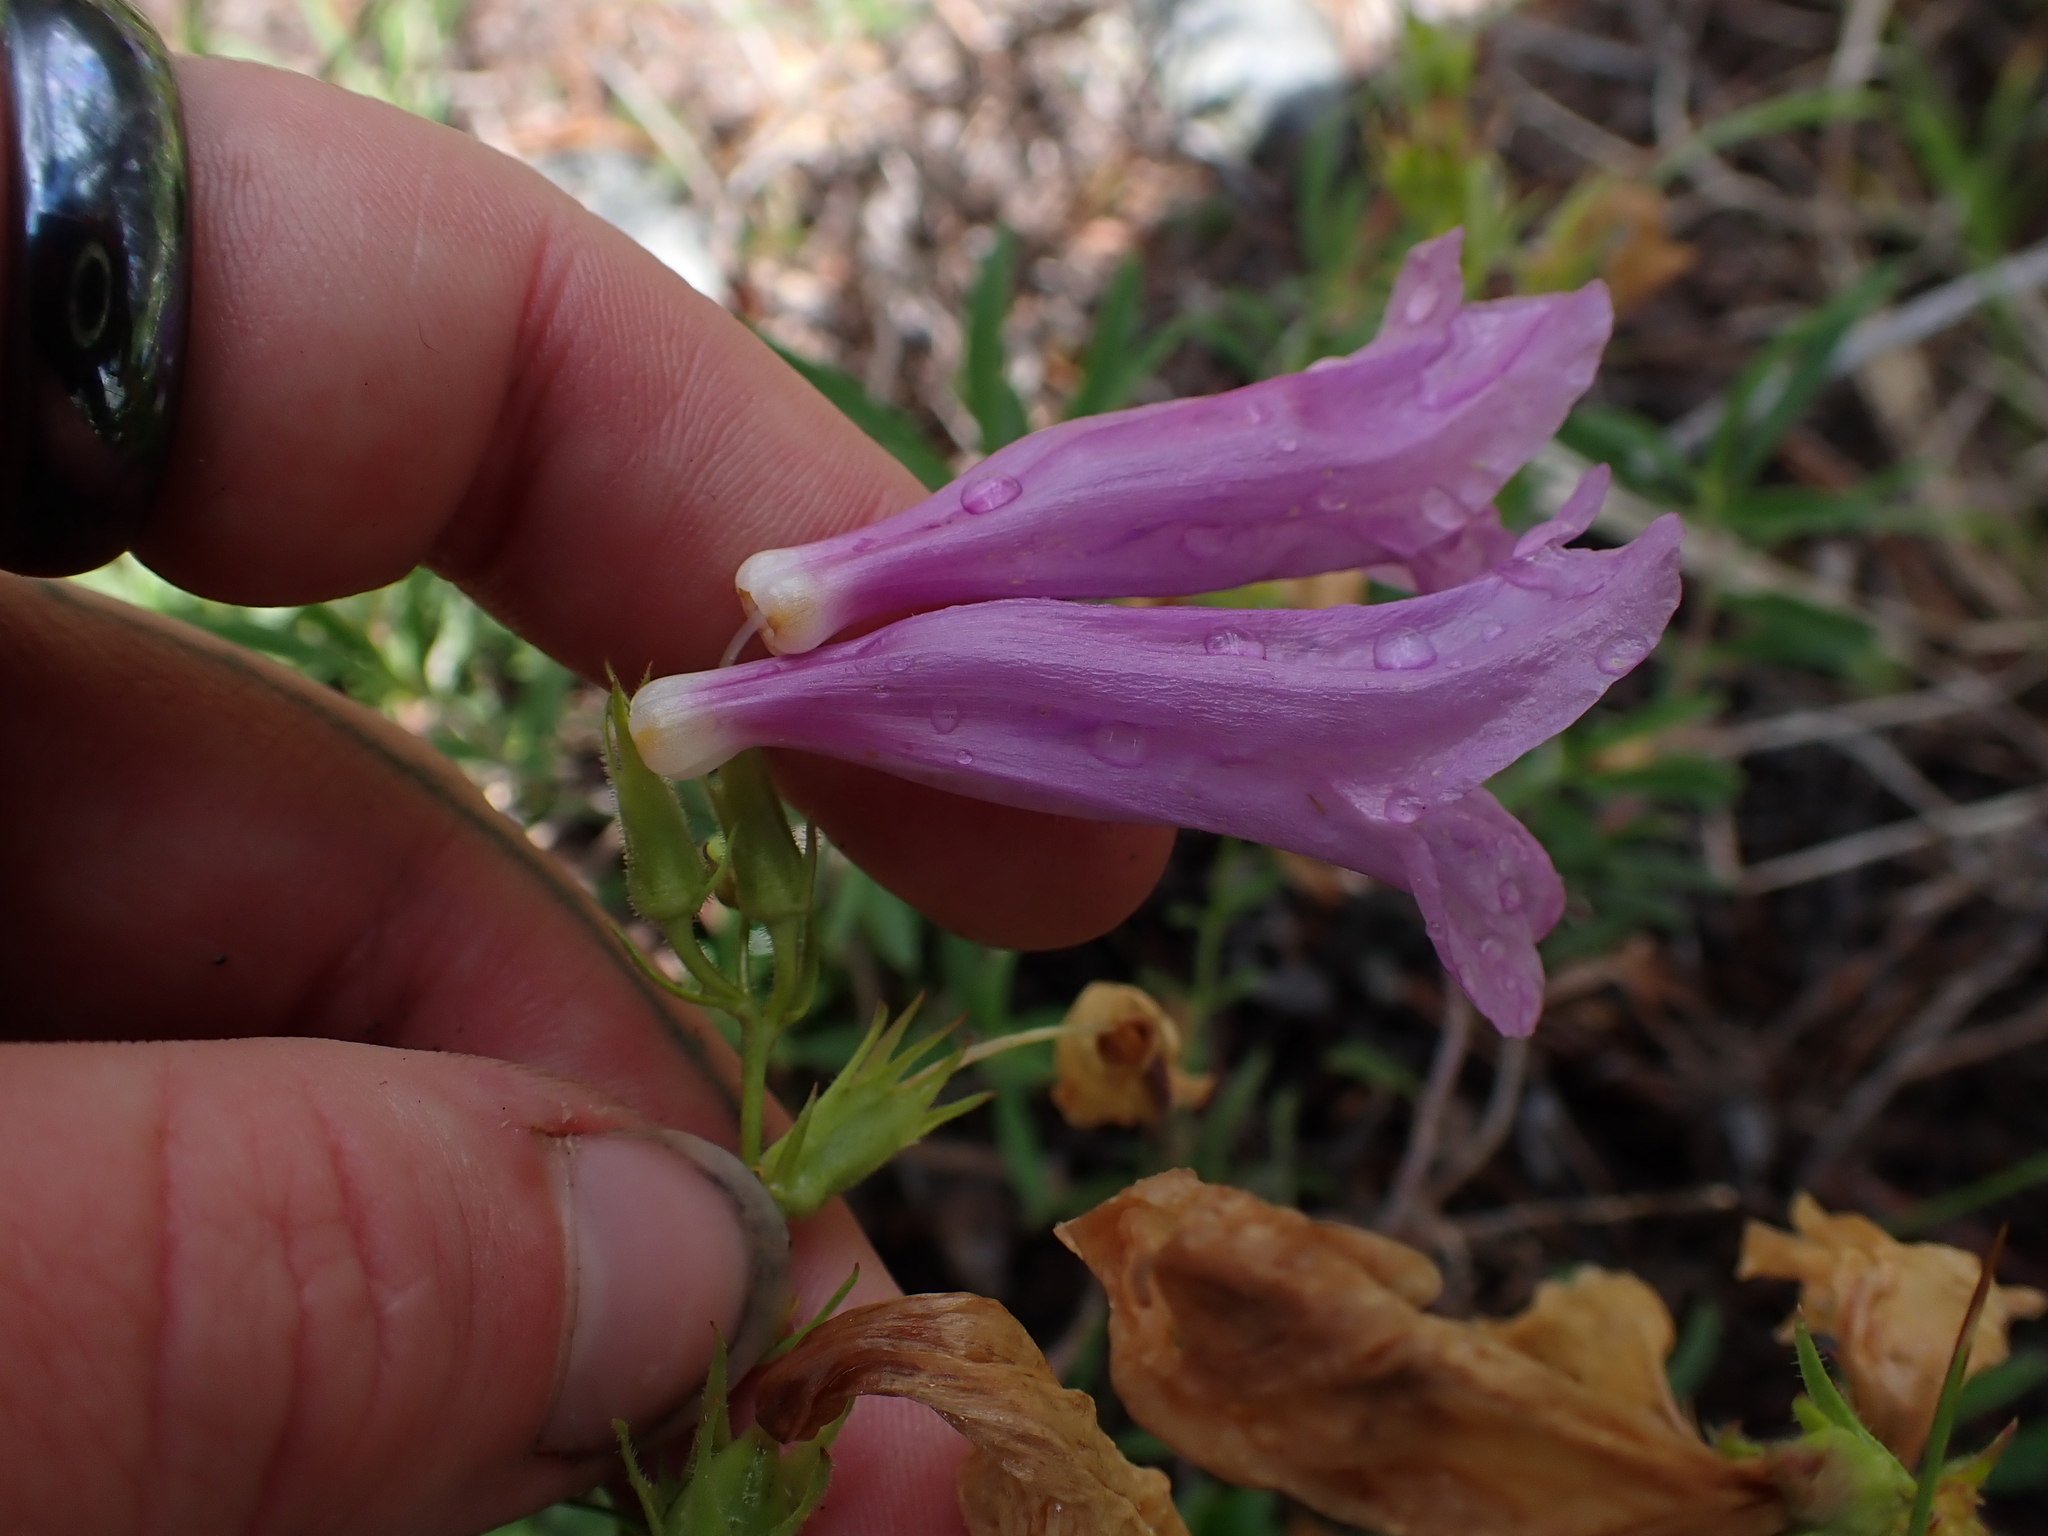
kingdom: Plantae
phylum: Tracheophyta
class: Magnoliopsida
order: Lamiales
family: Plantaginaceae
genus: Penstemon
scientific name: Penstemon fruticosus
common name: Bush penstemon
